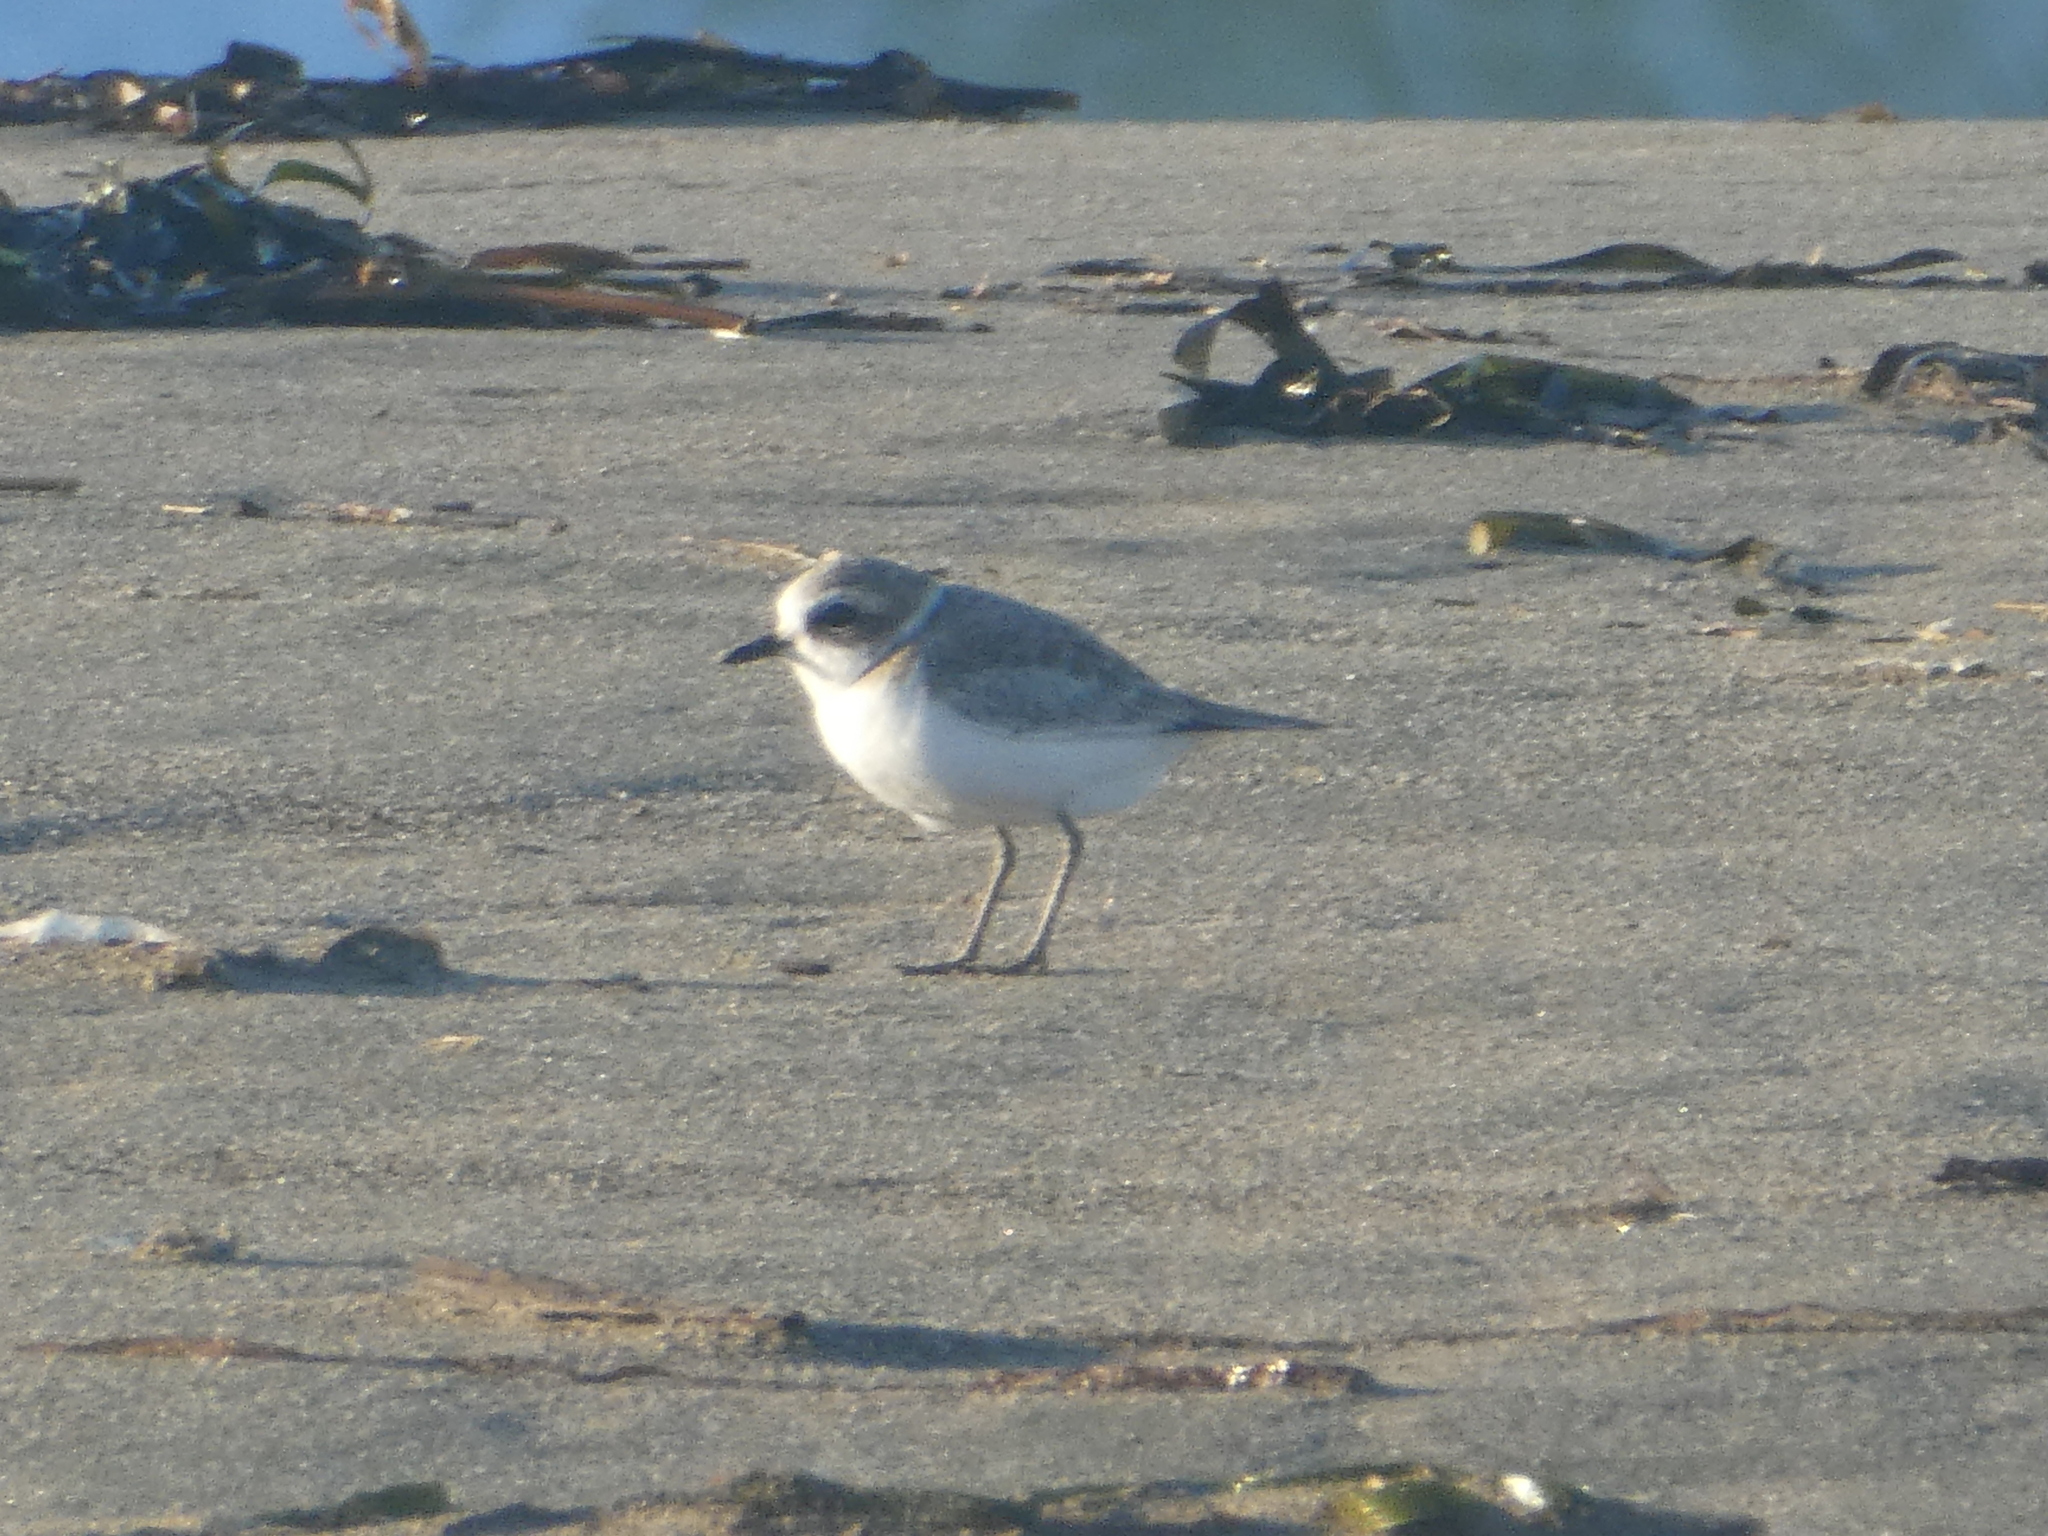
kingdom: Animalia
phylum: Chordata
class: Aves
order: Charadriiformes
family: Charadriidae
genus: Anarhynchus
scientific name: Anarhynchus
